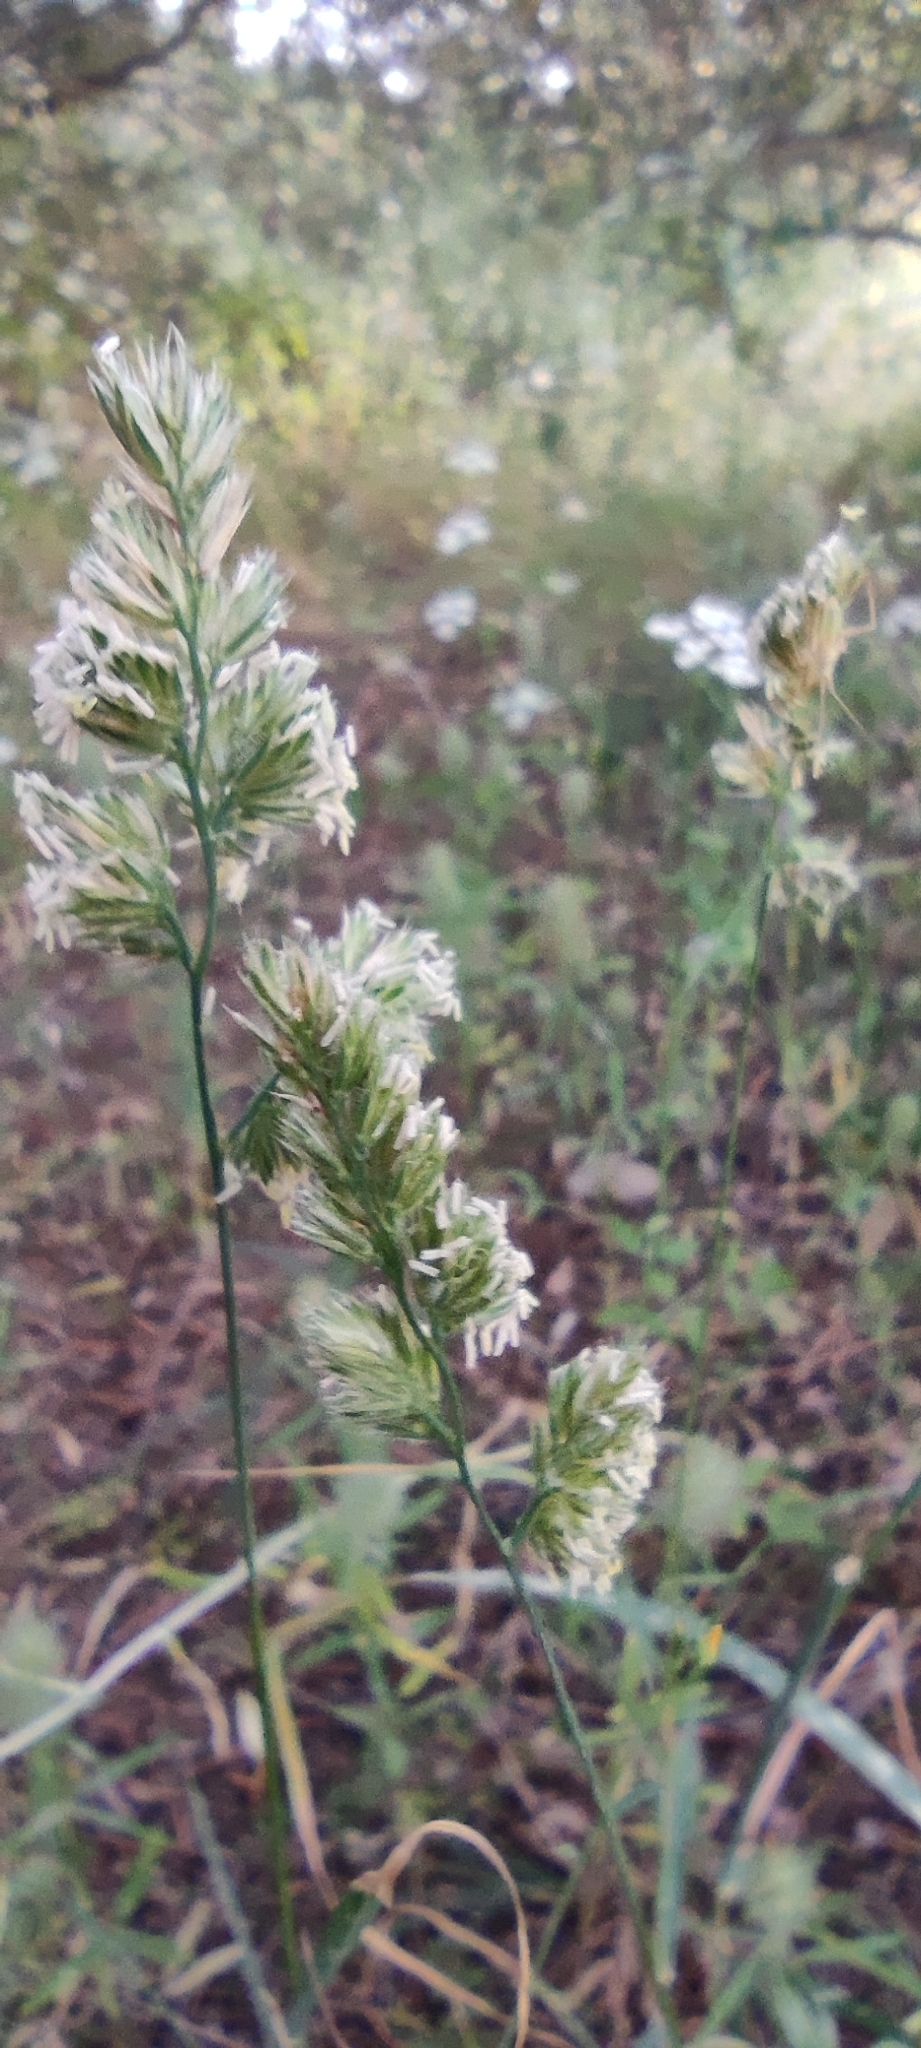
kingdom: Plantae
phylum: Tracheophyta
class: Liliopsida
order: Poales
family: Poaceae
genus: Dactylis
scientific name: Dactylis glomerata
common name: Orchardgrass
